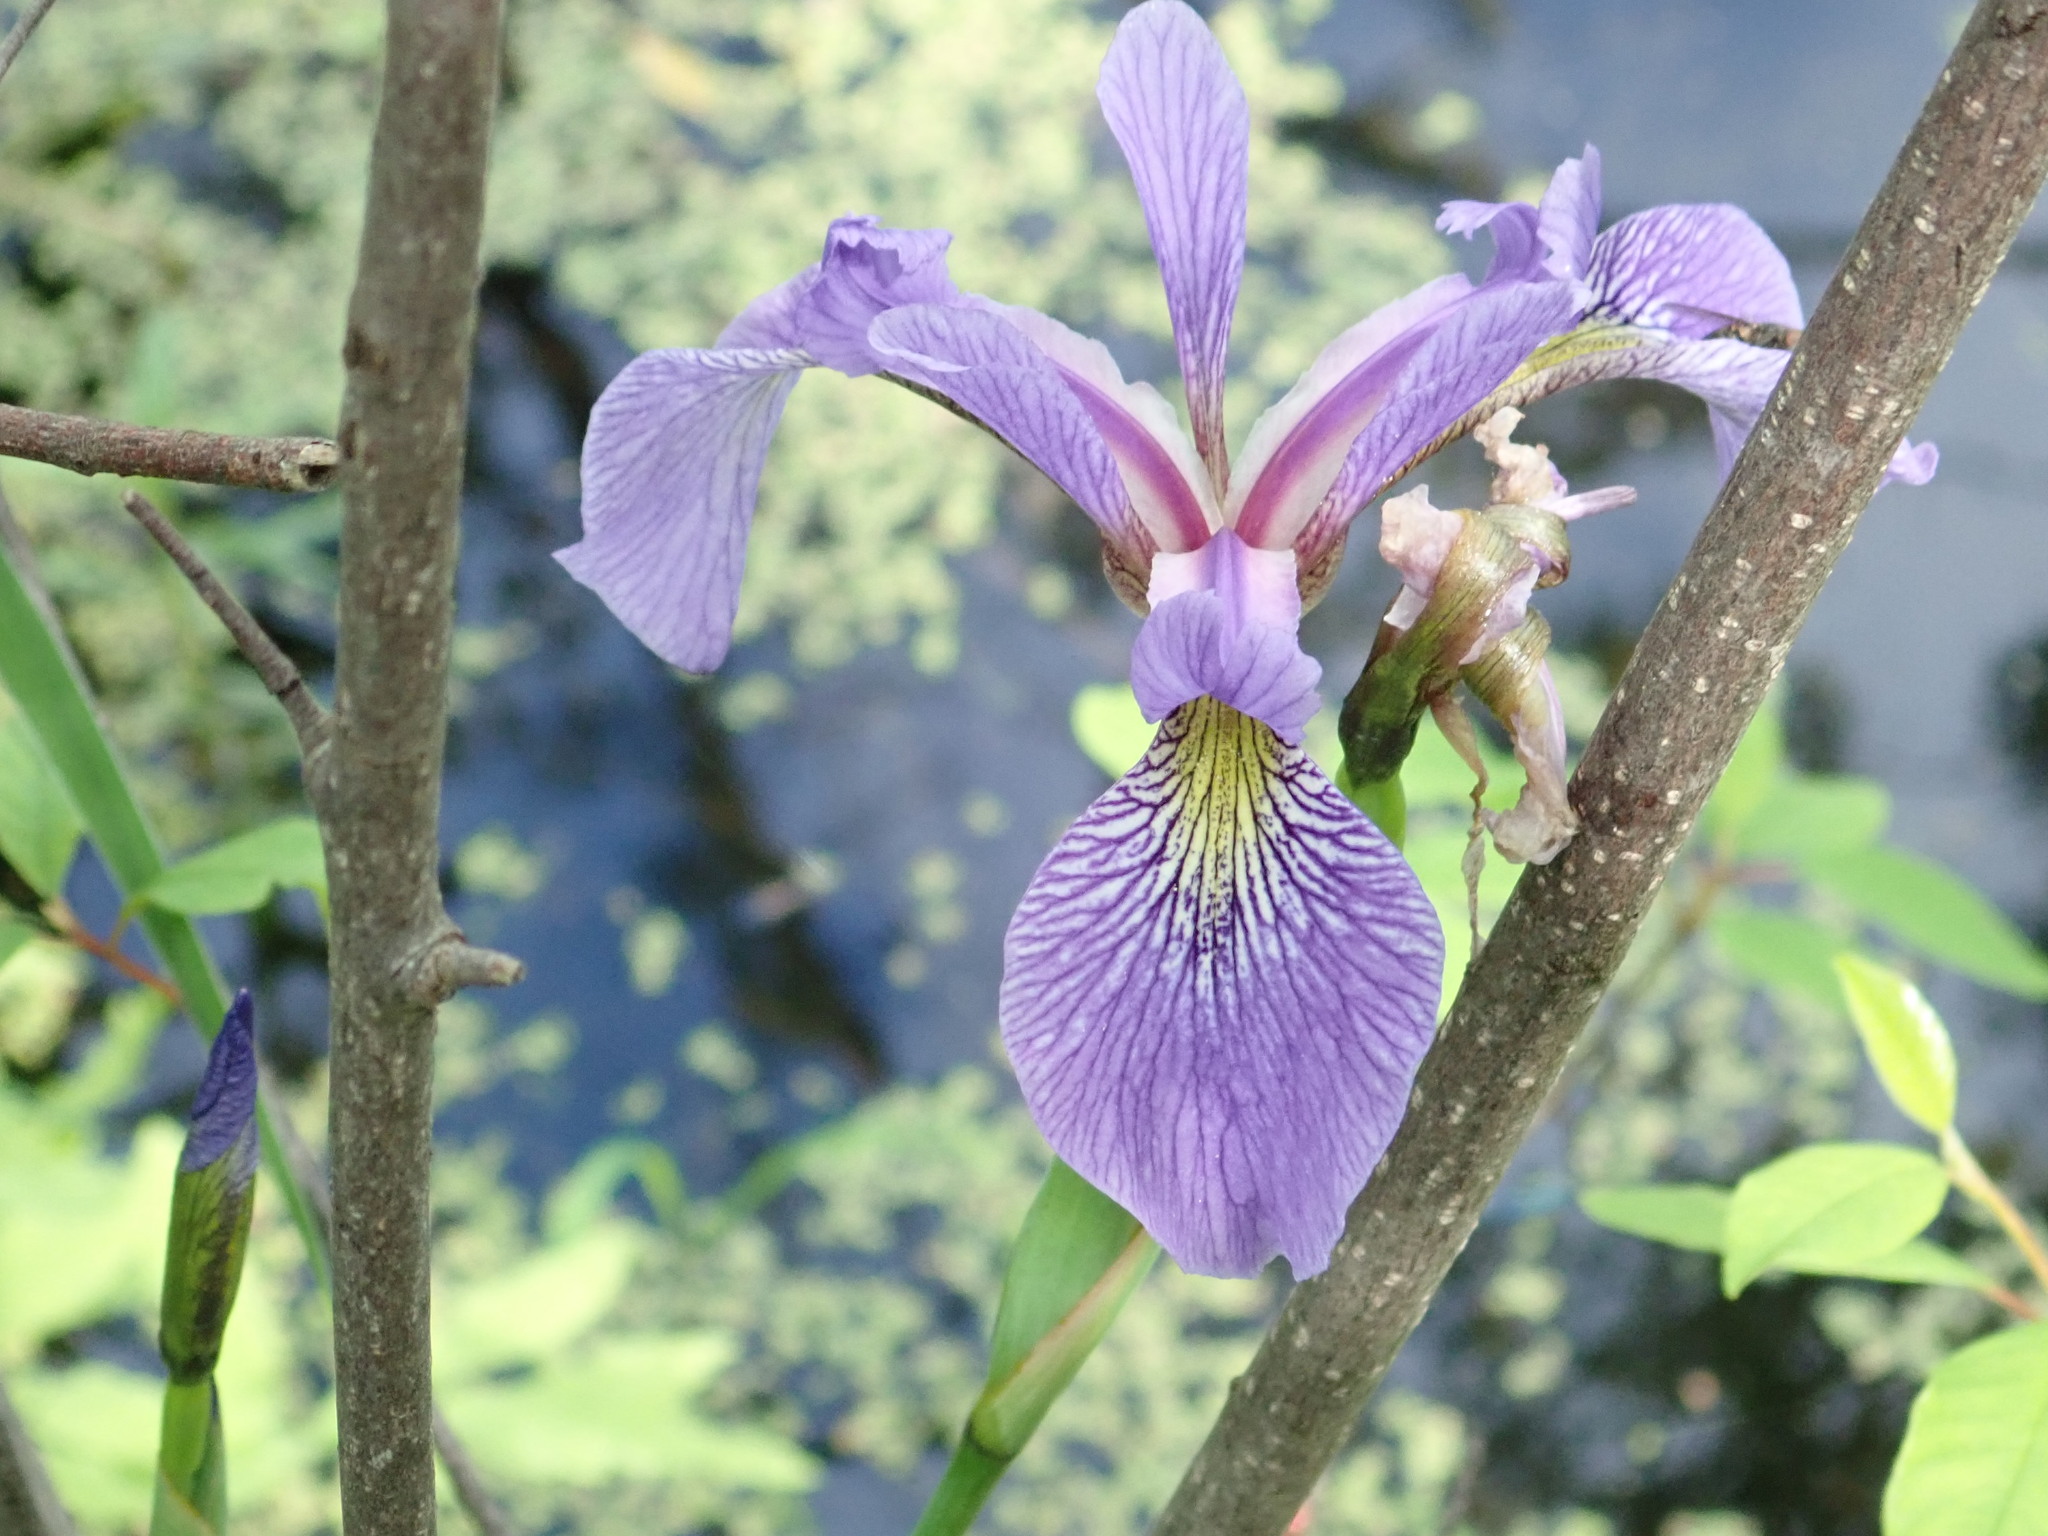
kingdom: Plantae
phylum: Tracheophyta
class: Liliopsida
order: Asparagales
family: Iridaceae
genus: Iris
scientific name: Iris versicolor
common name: Purple iris
